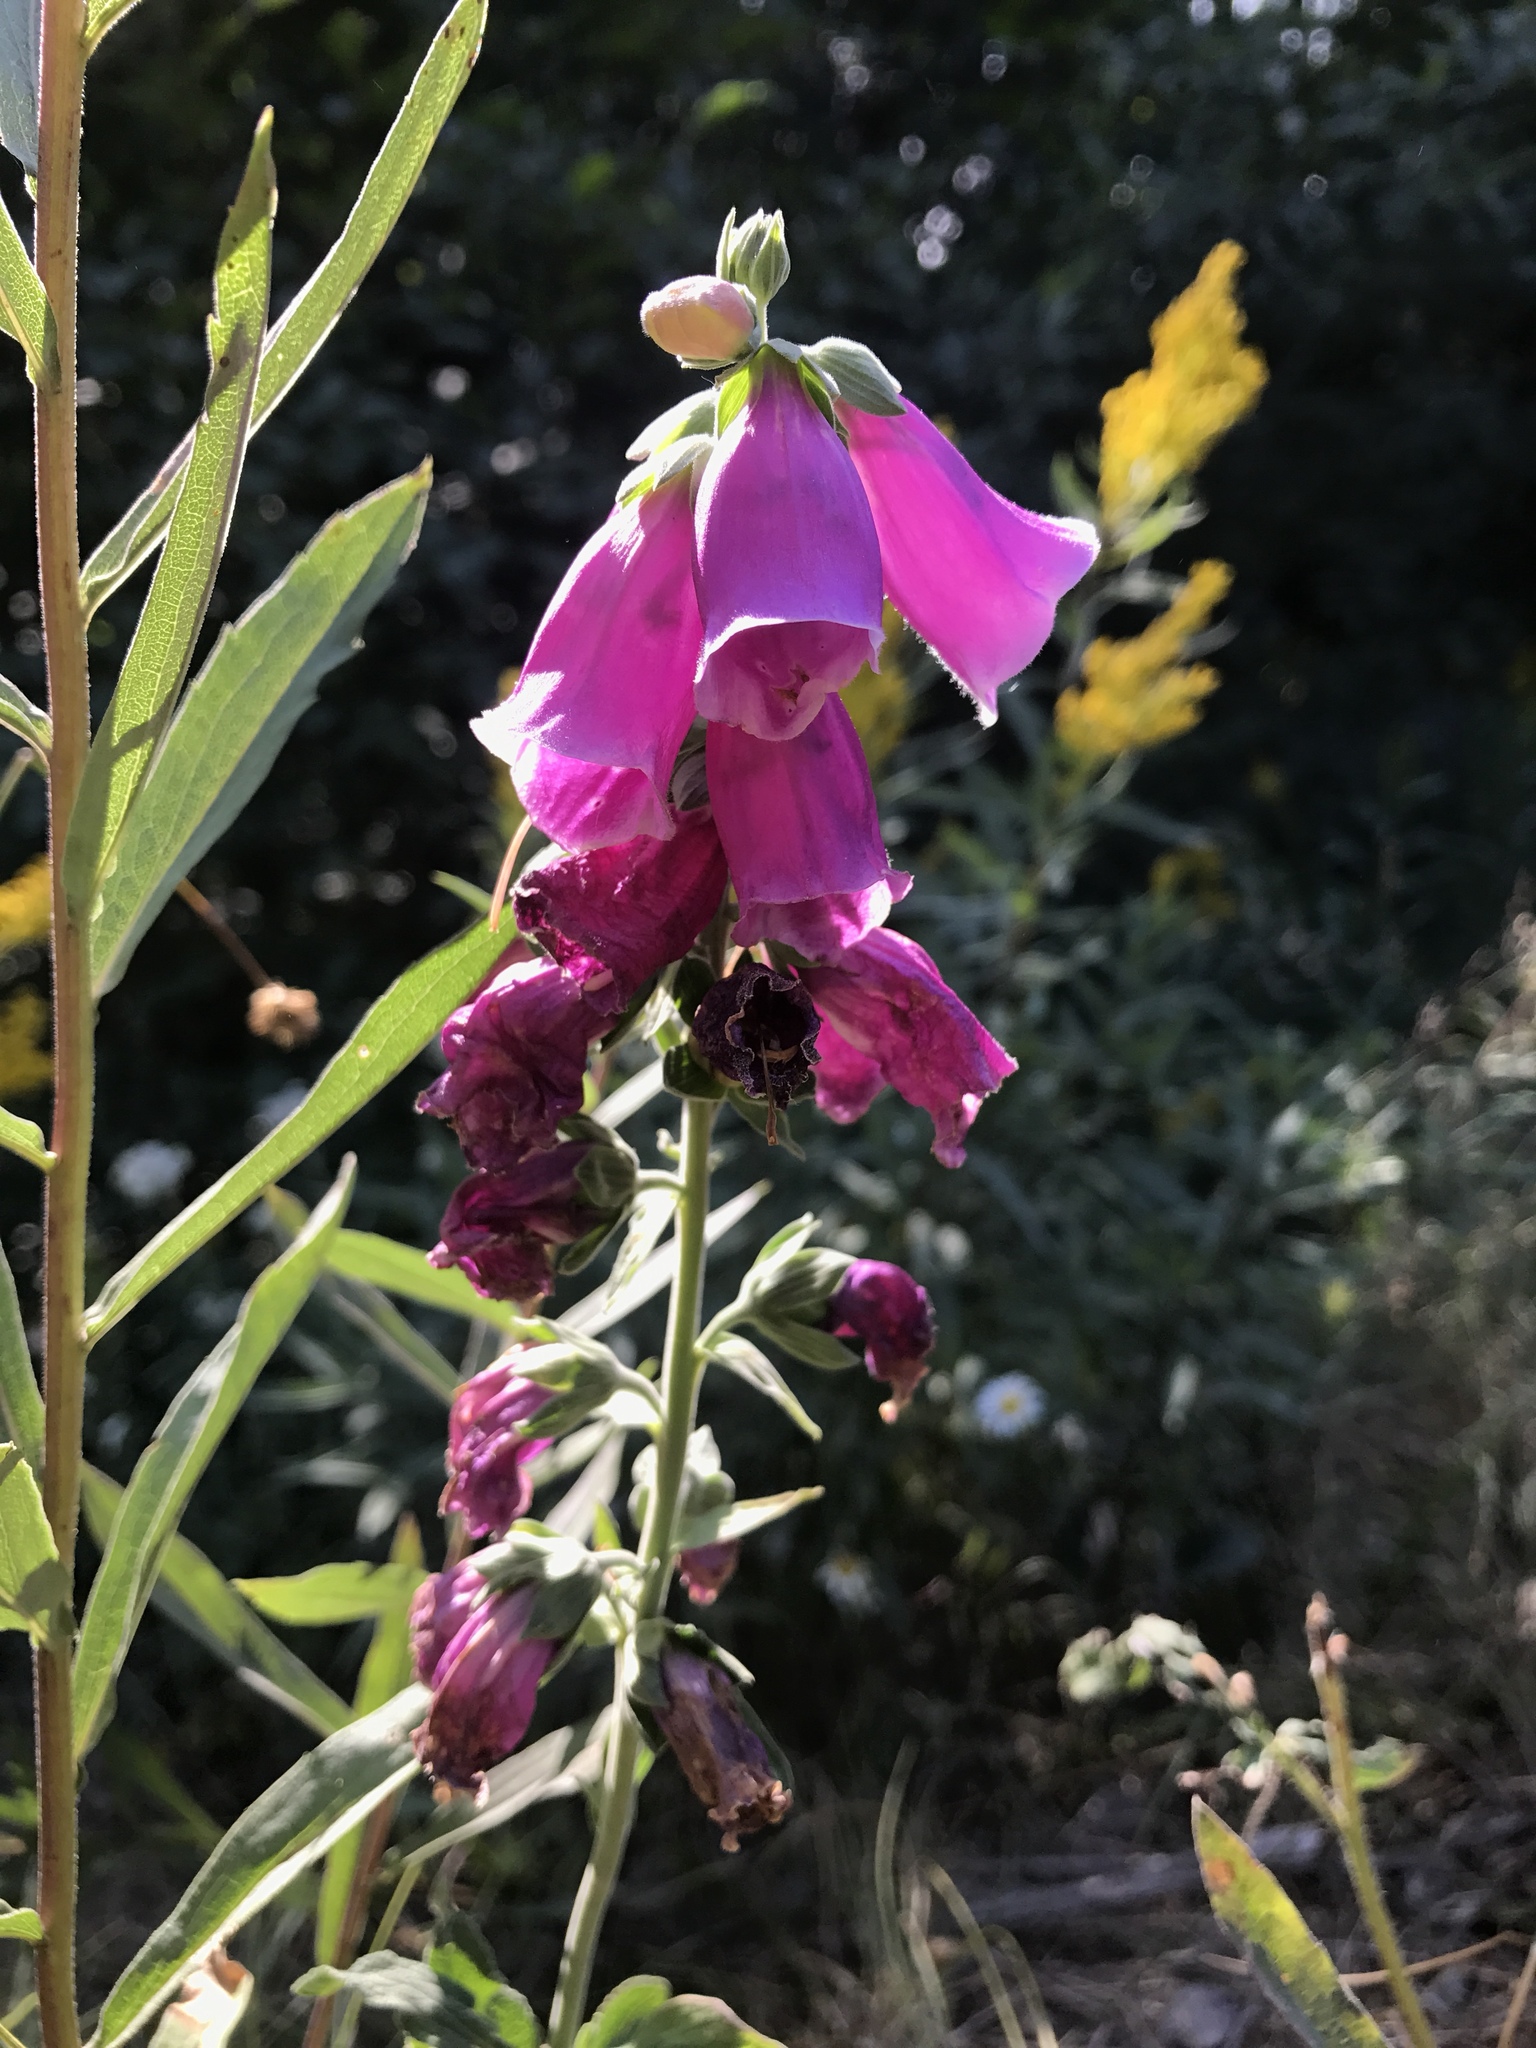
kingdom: Plantae
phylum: Tracheophyta
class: Magnoliopsida
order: Lamiales
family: Plantaginaceae
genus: Digitalis
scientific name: Digitalis purpurea
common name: Foxglove
